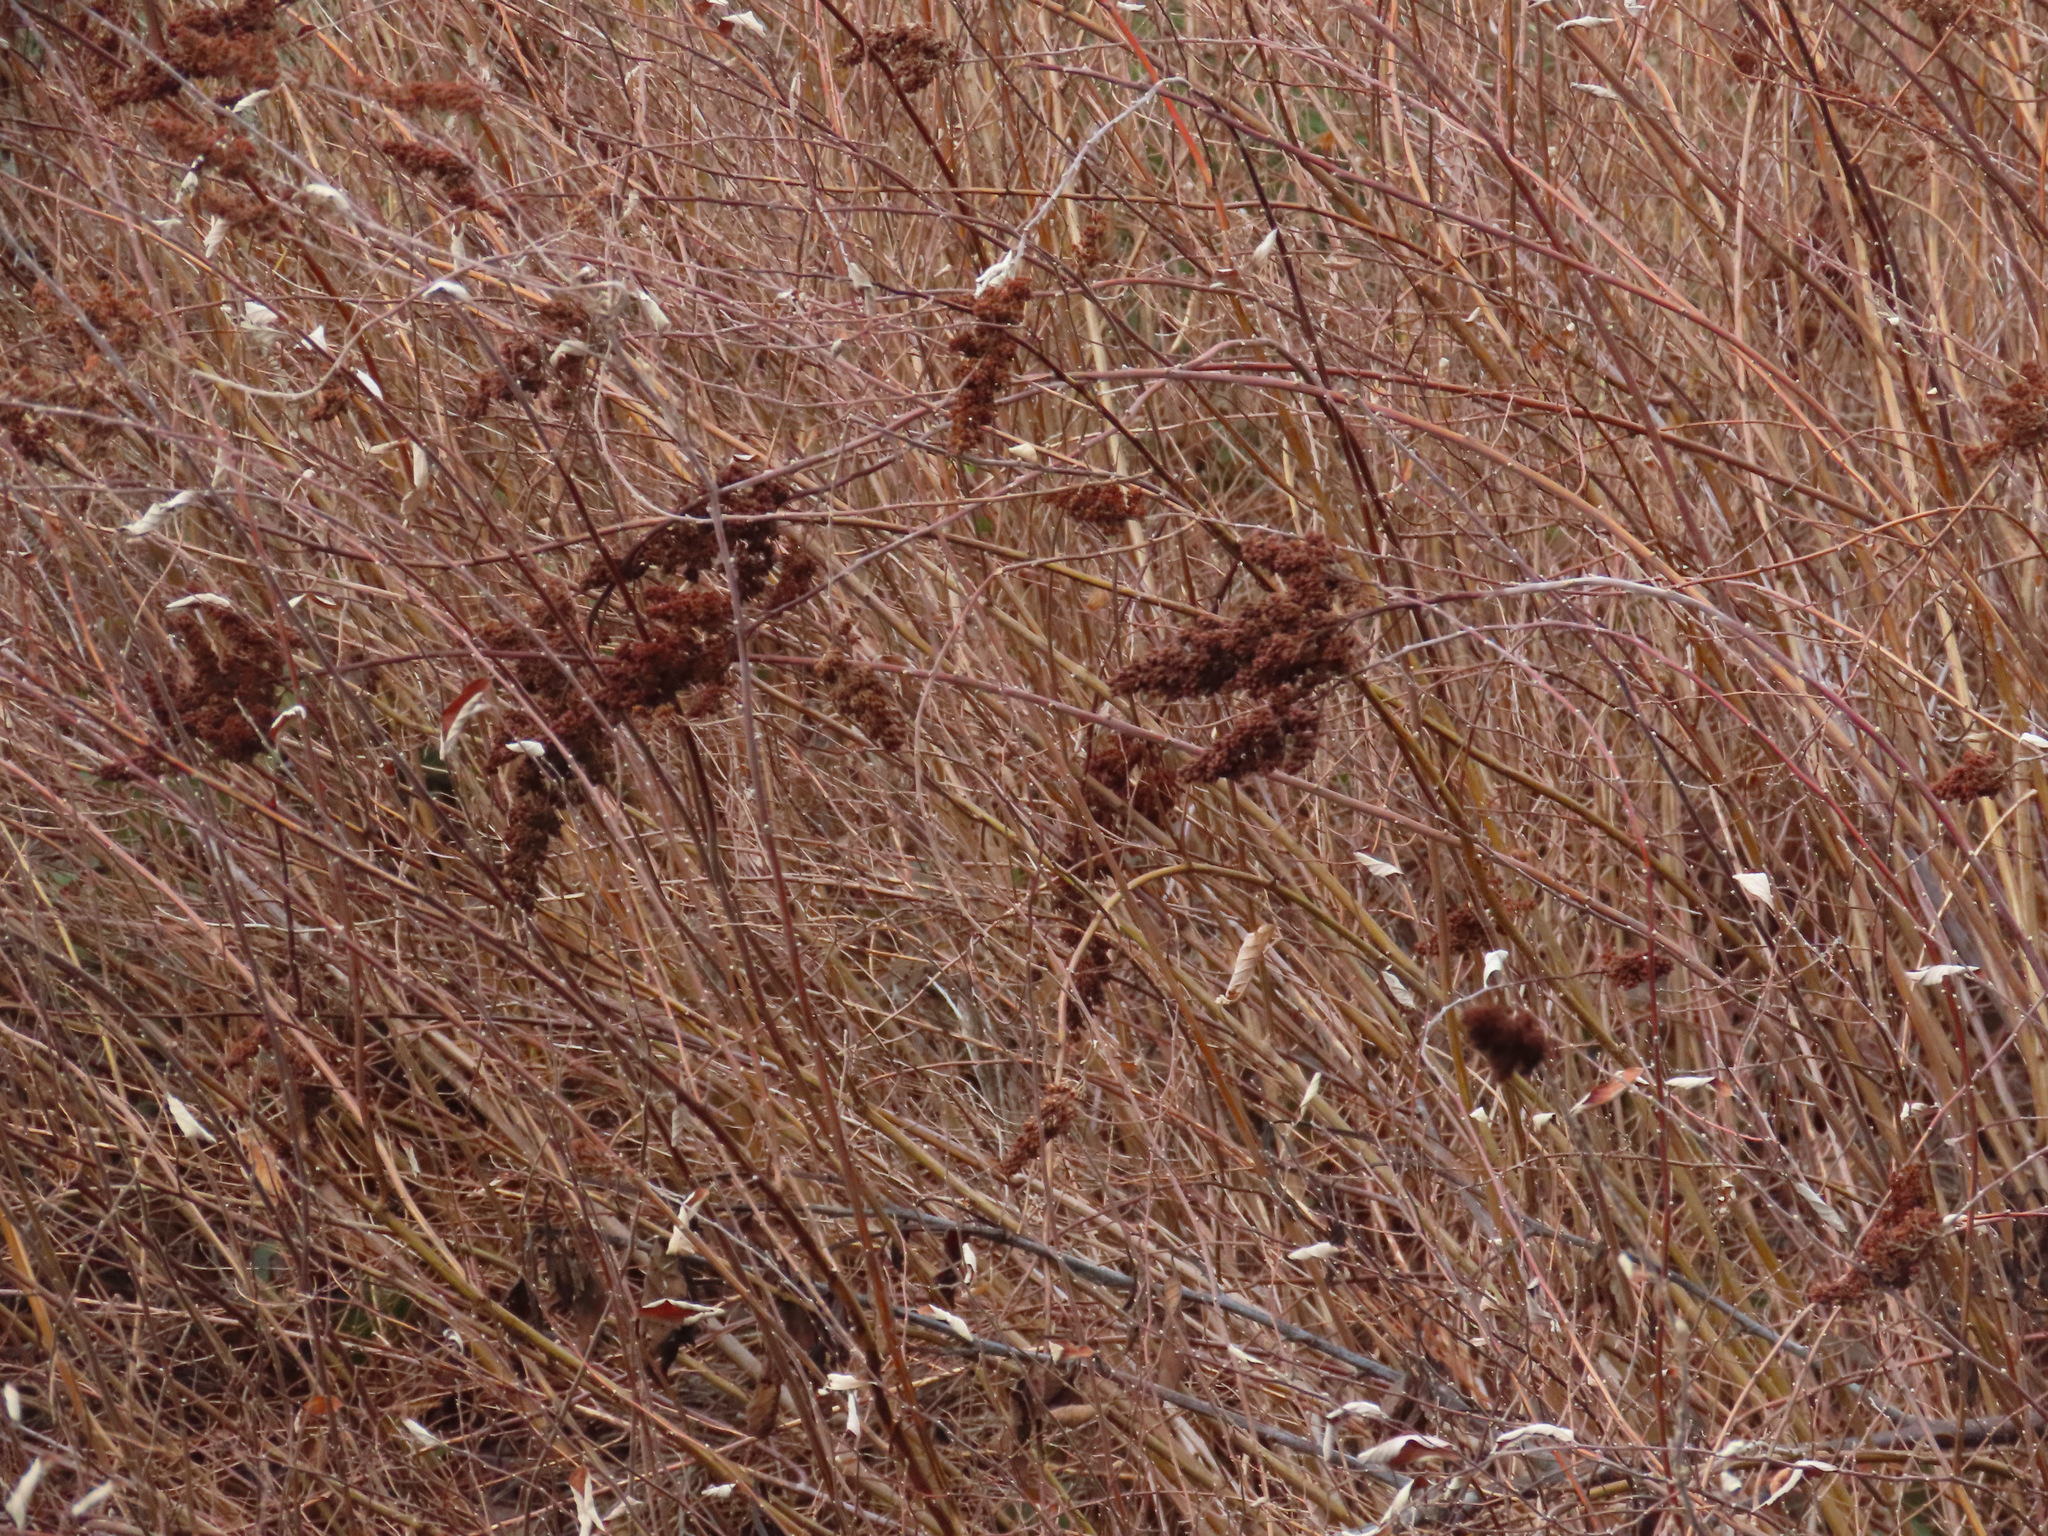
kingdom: Plantae
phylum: Tracheophyta
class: Magnoliopsida
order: Rosales
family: Rosaceae
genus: Spiraea
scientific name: Spiraea douglasii
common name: Steeplebush
